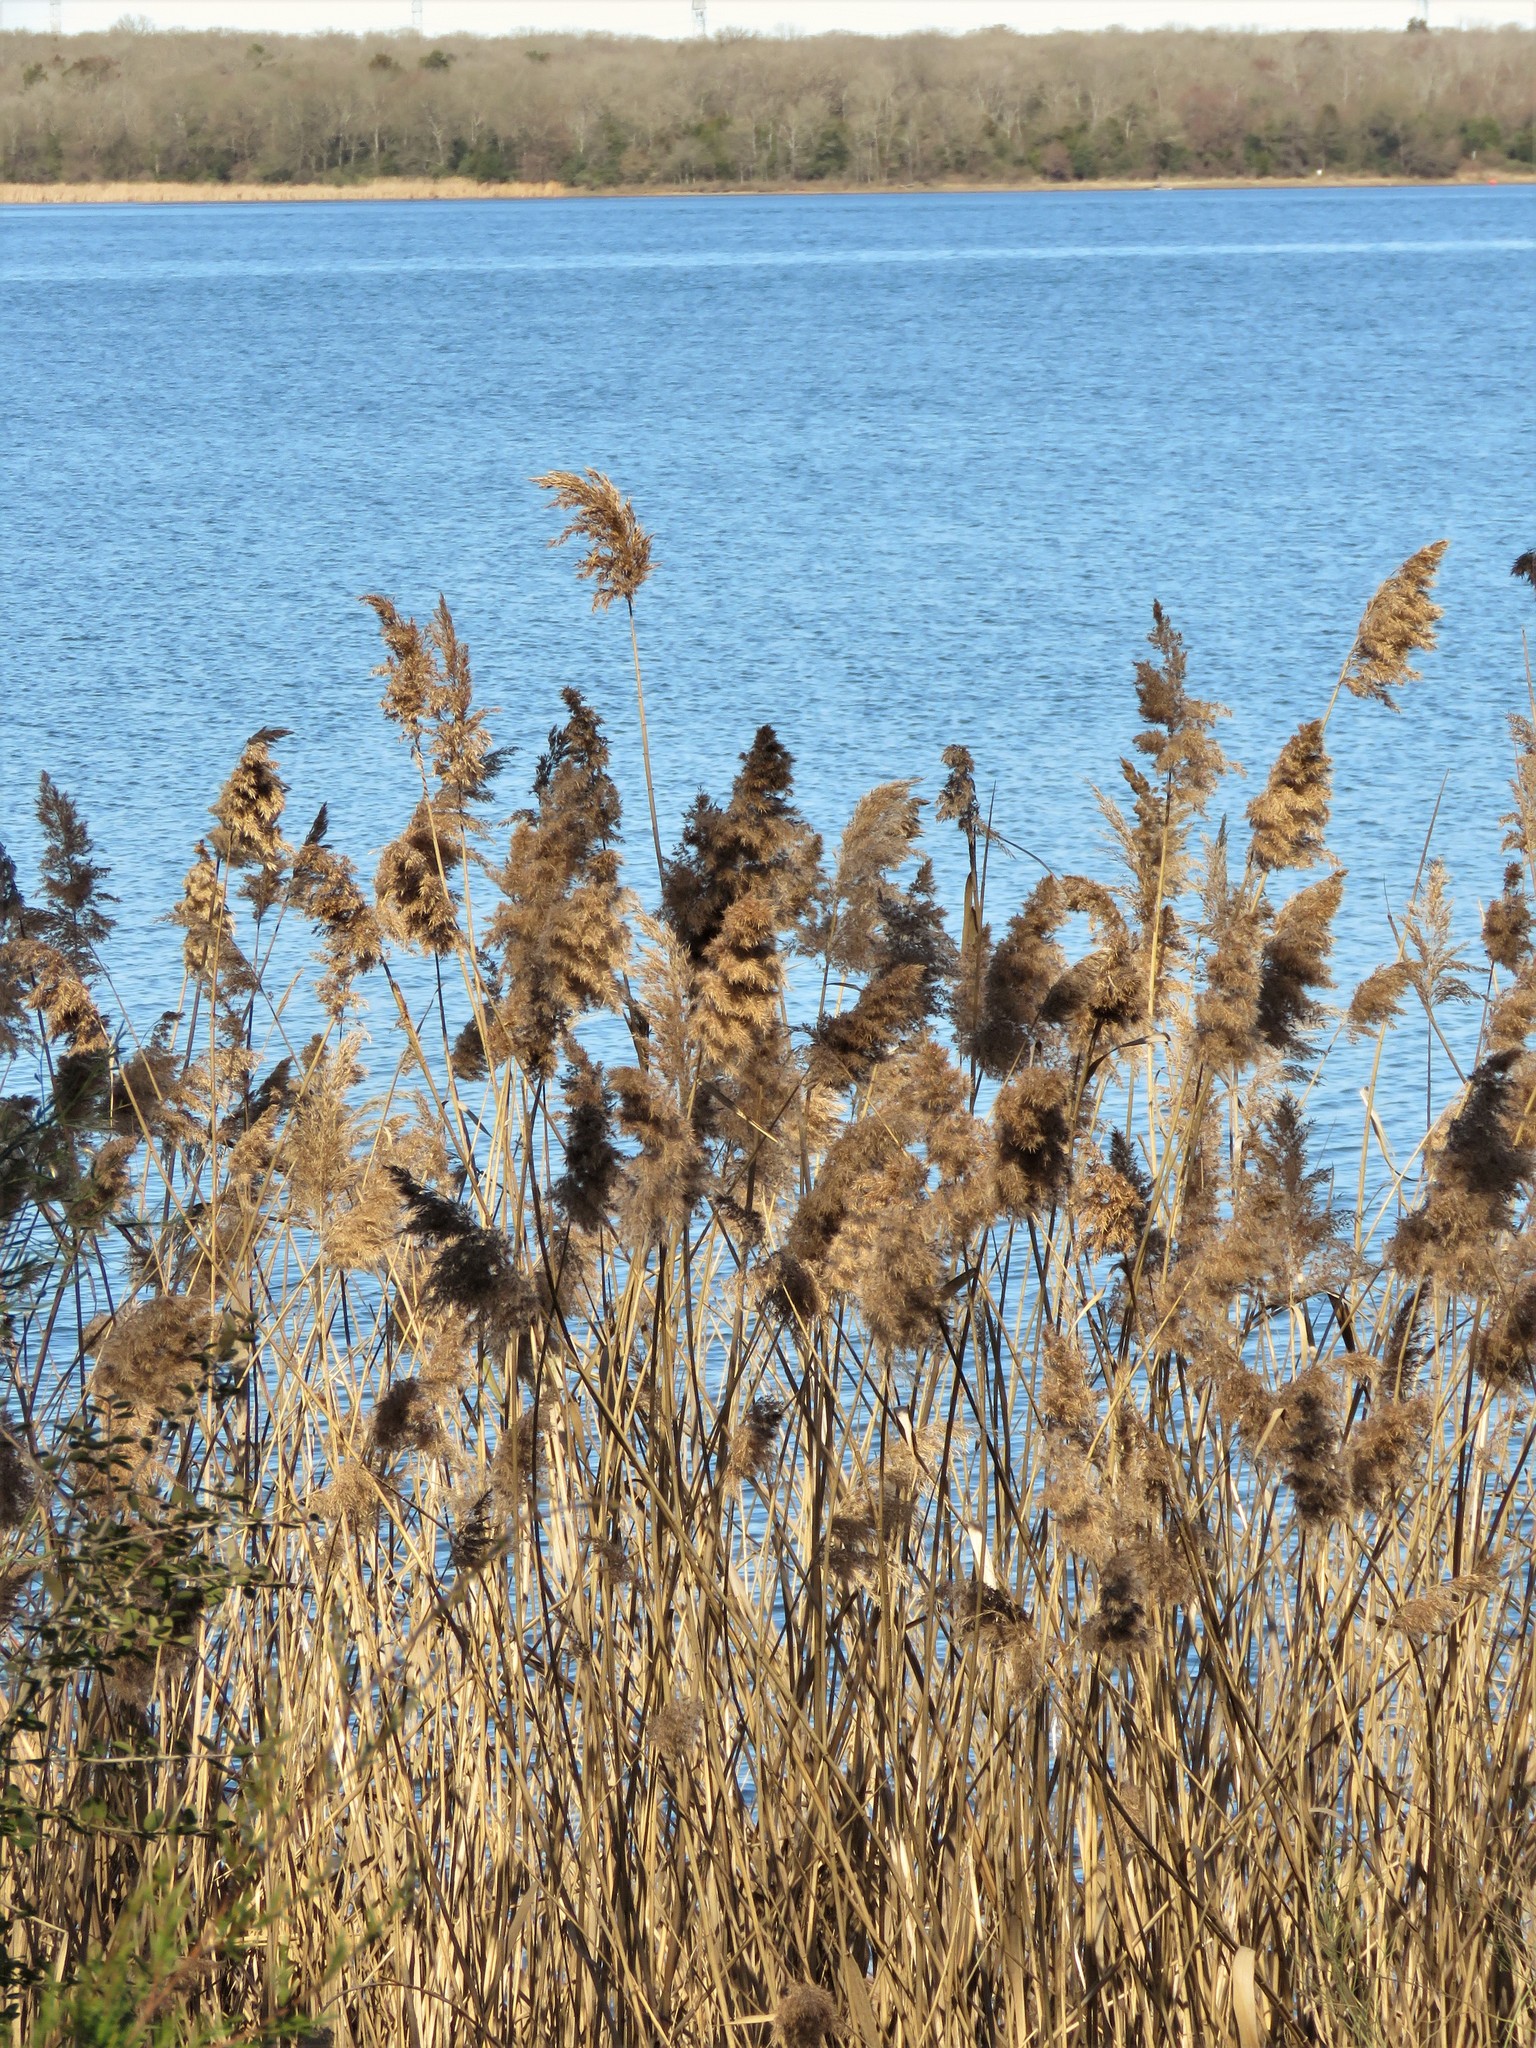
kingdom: Plantae
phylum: Tracheophyta
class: Liliopsida
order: Poales
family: Poaceae
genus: Phragmites
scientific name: Phragmites australis
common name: Common reed
